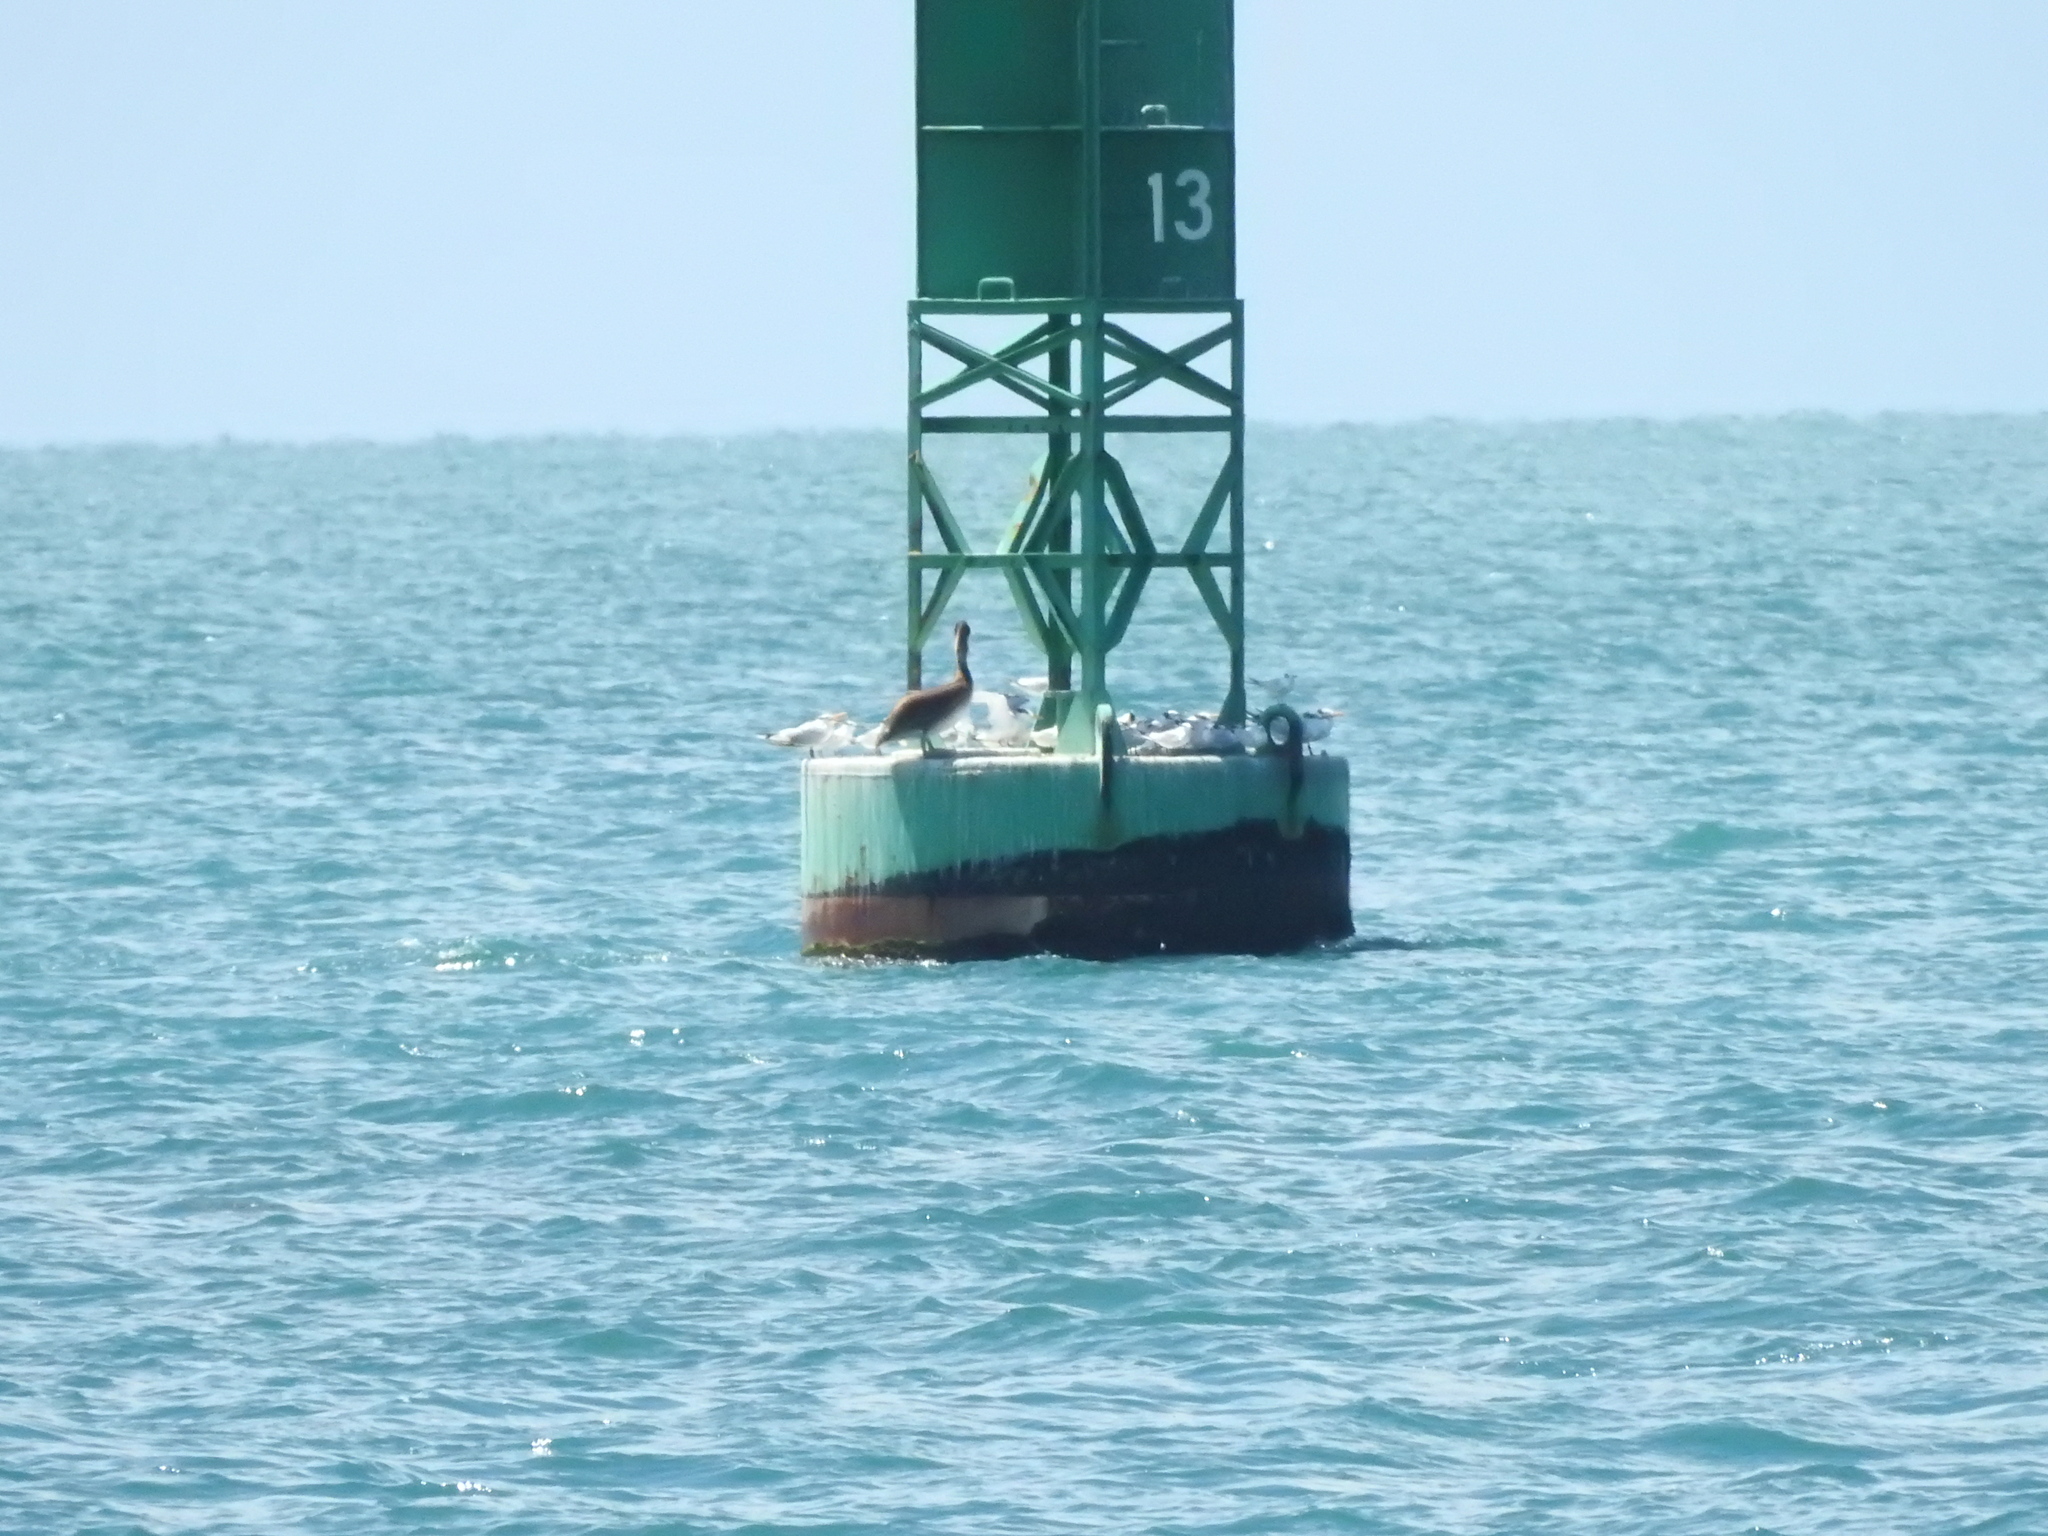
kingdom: Animalia
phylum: Chordata
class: Aves
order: Charadriiformes
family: Laridae
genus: Thalasseus
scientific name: Thalasseus maximus
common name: Royal tern
